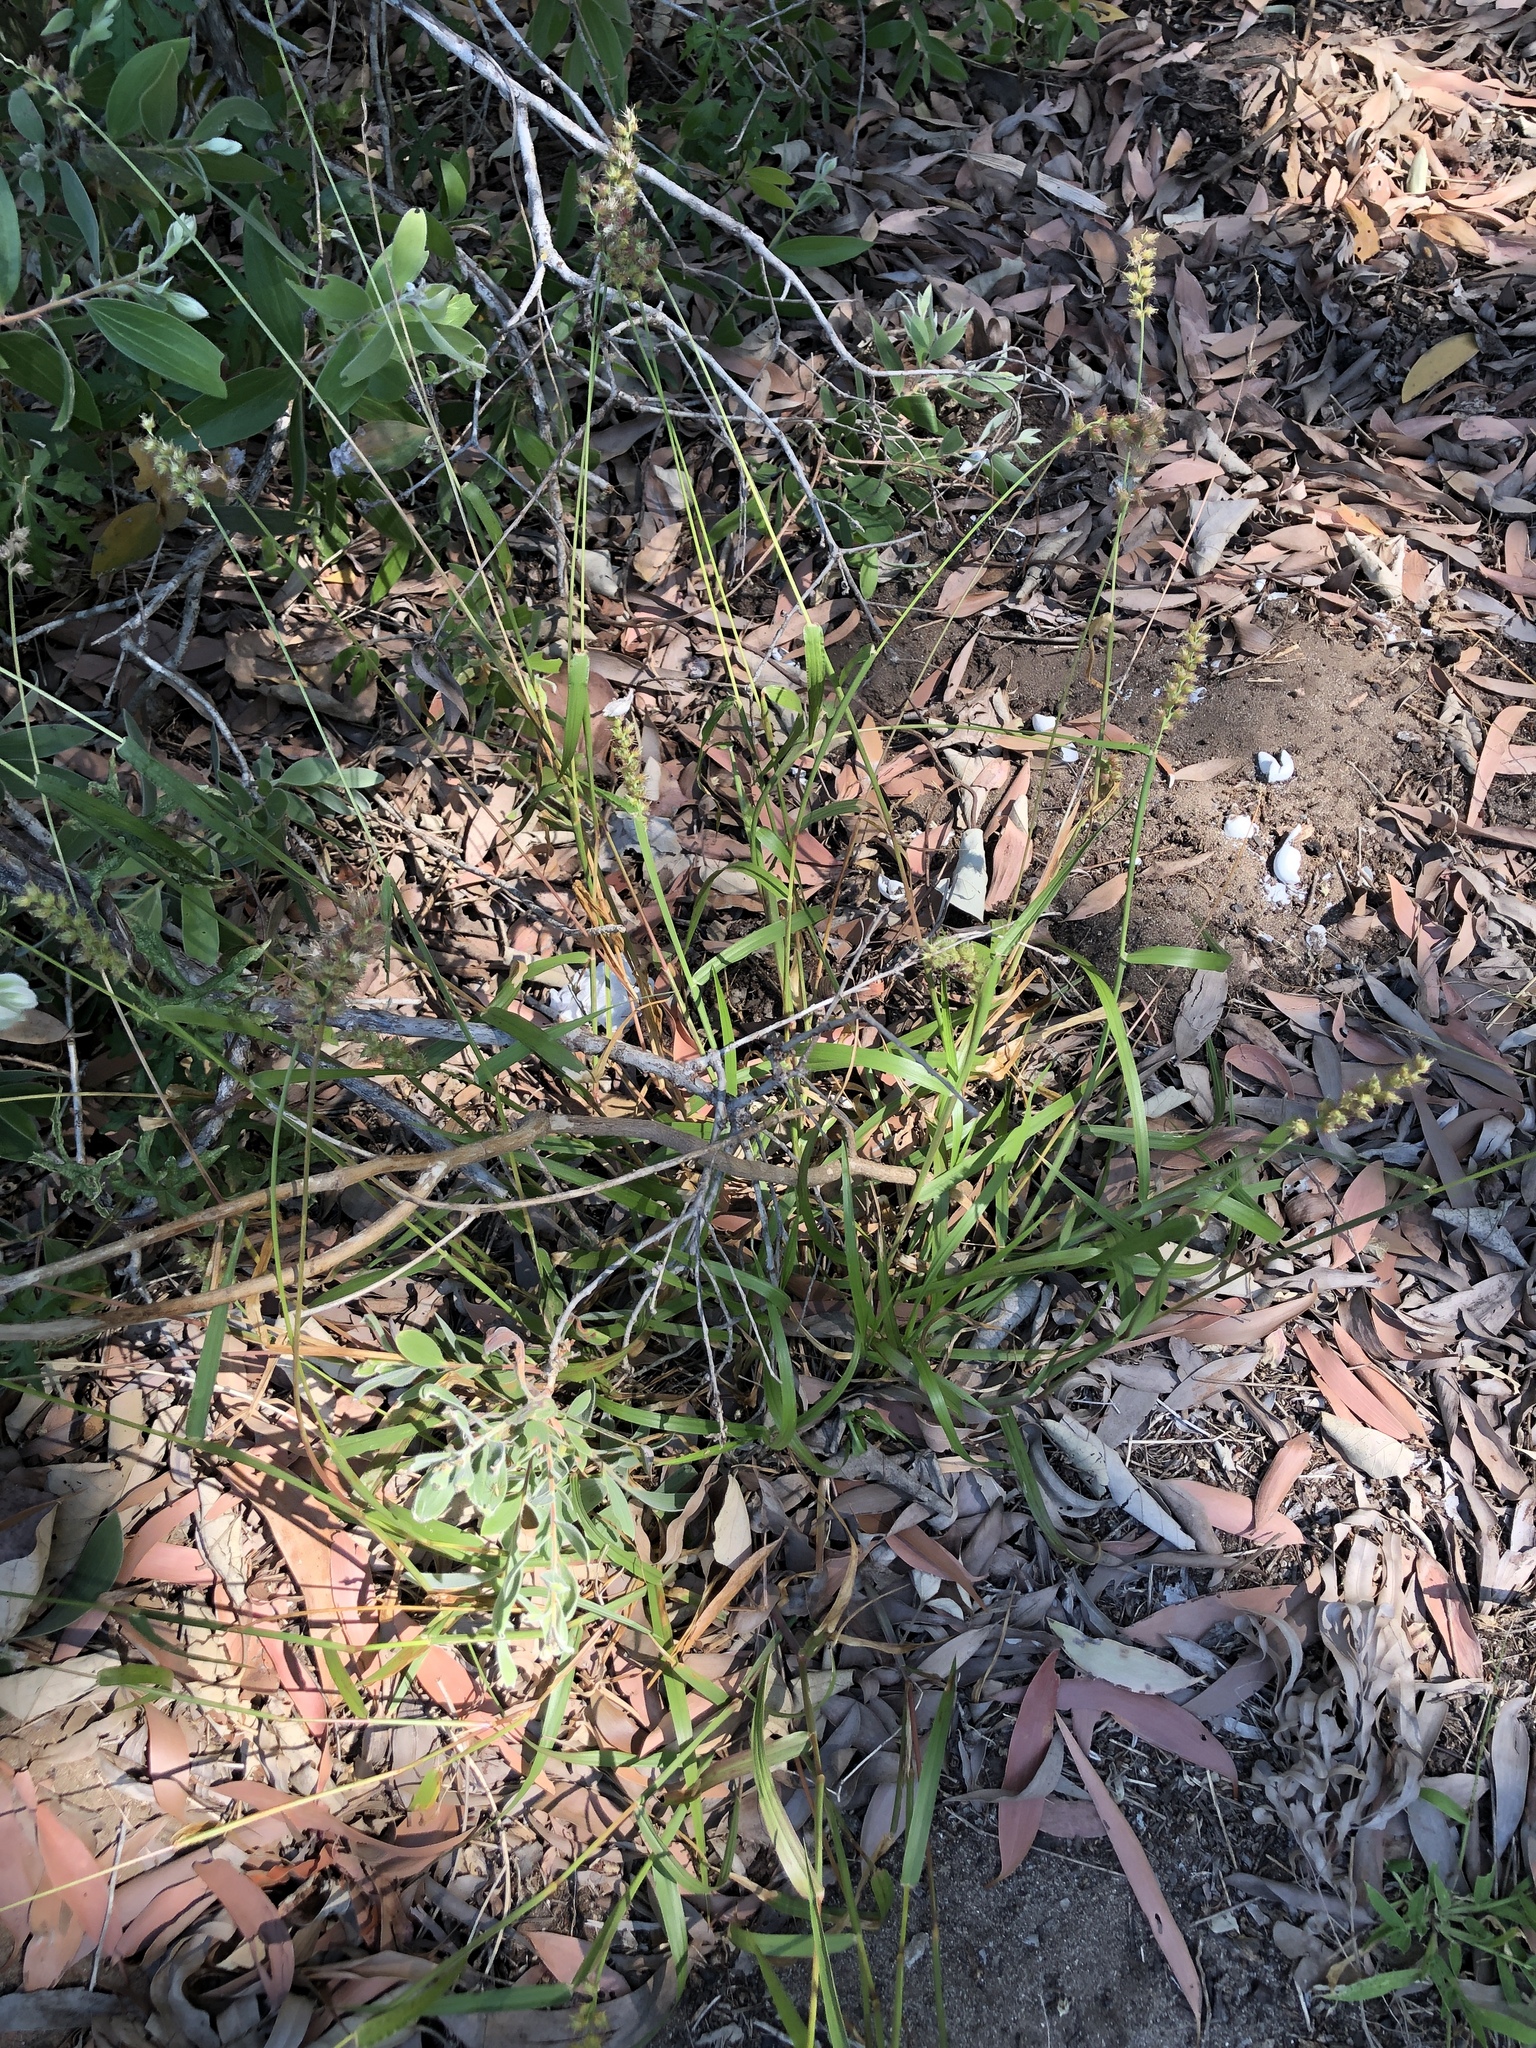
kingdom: Plantae
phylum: Tracheophyta
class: Liliopsida
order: Poales
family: Poaceae
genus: Cenchrus
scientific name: Cenchrus echinatus
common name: Southern sandbur
